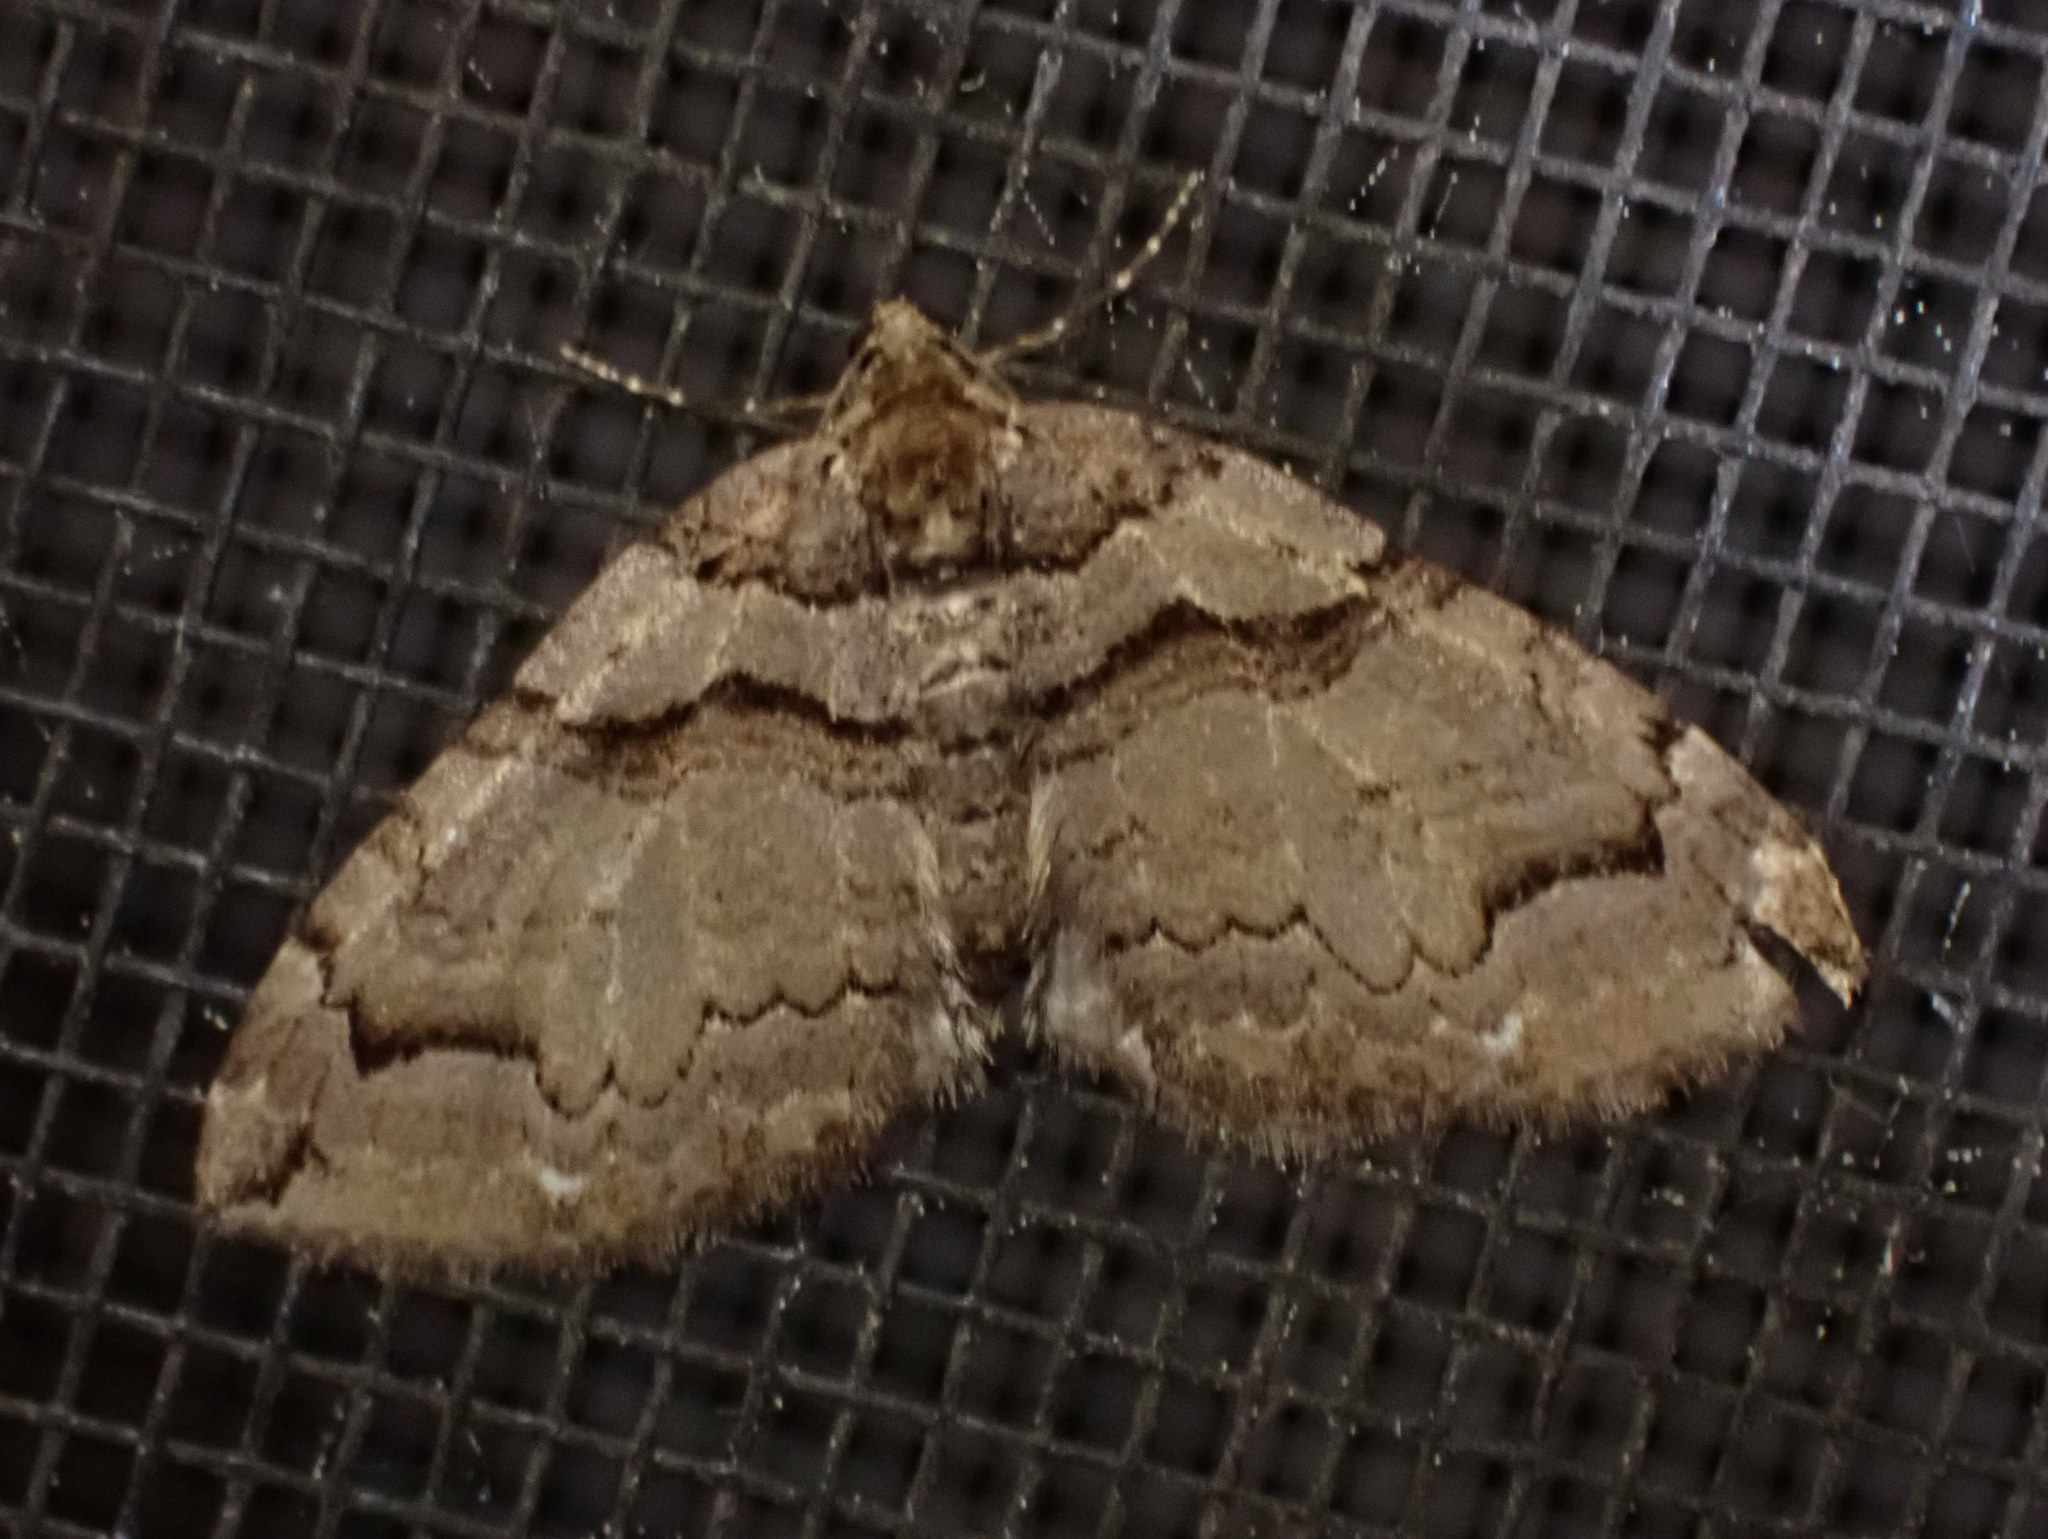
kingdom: Animalia
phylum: Arthropoda
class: Insecta
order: Lepidoptera
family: Geometridae
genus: Anticlea
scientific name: Anticlea vasiliata
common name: Variable carpet
